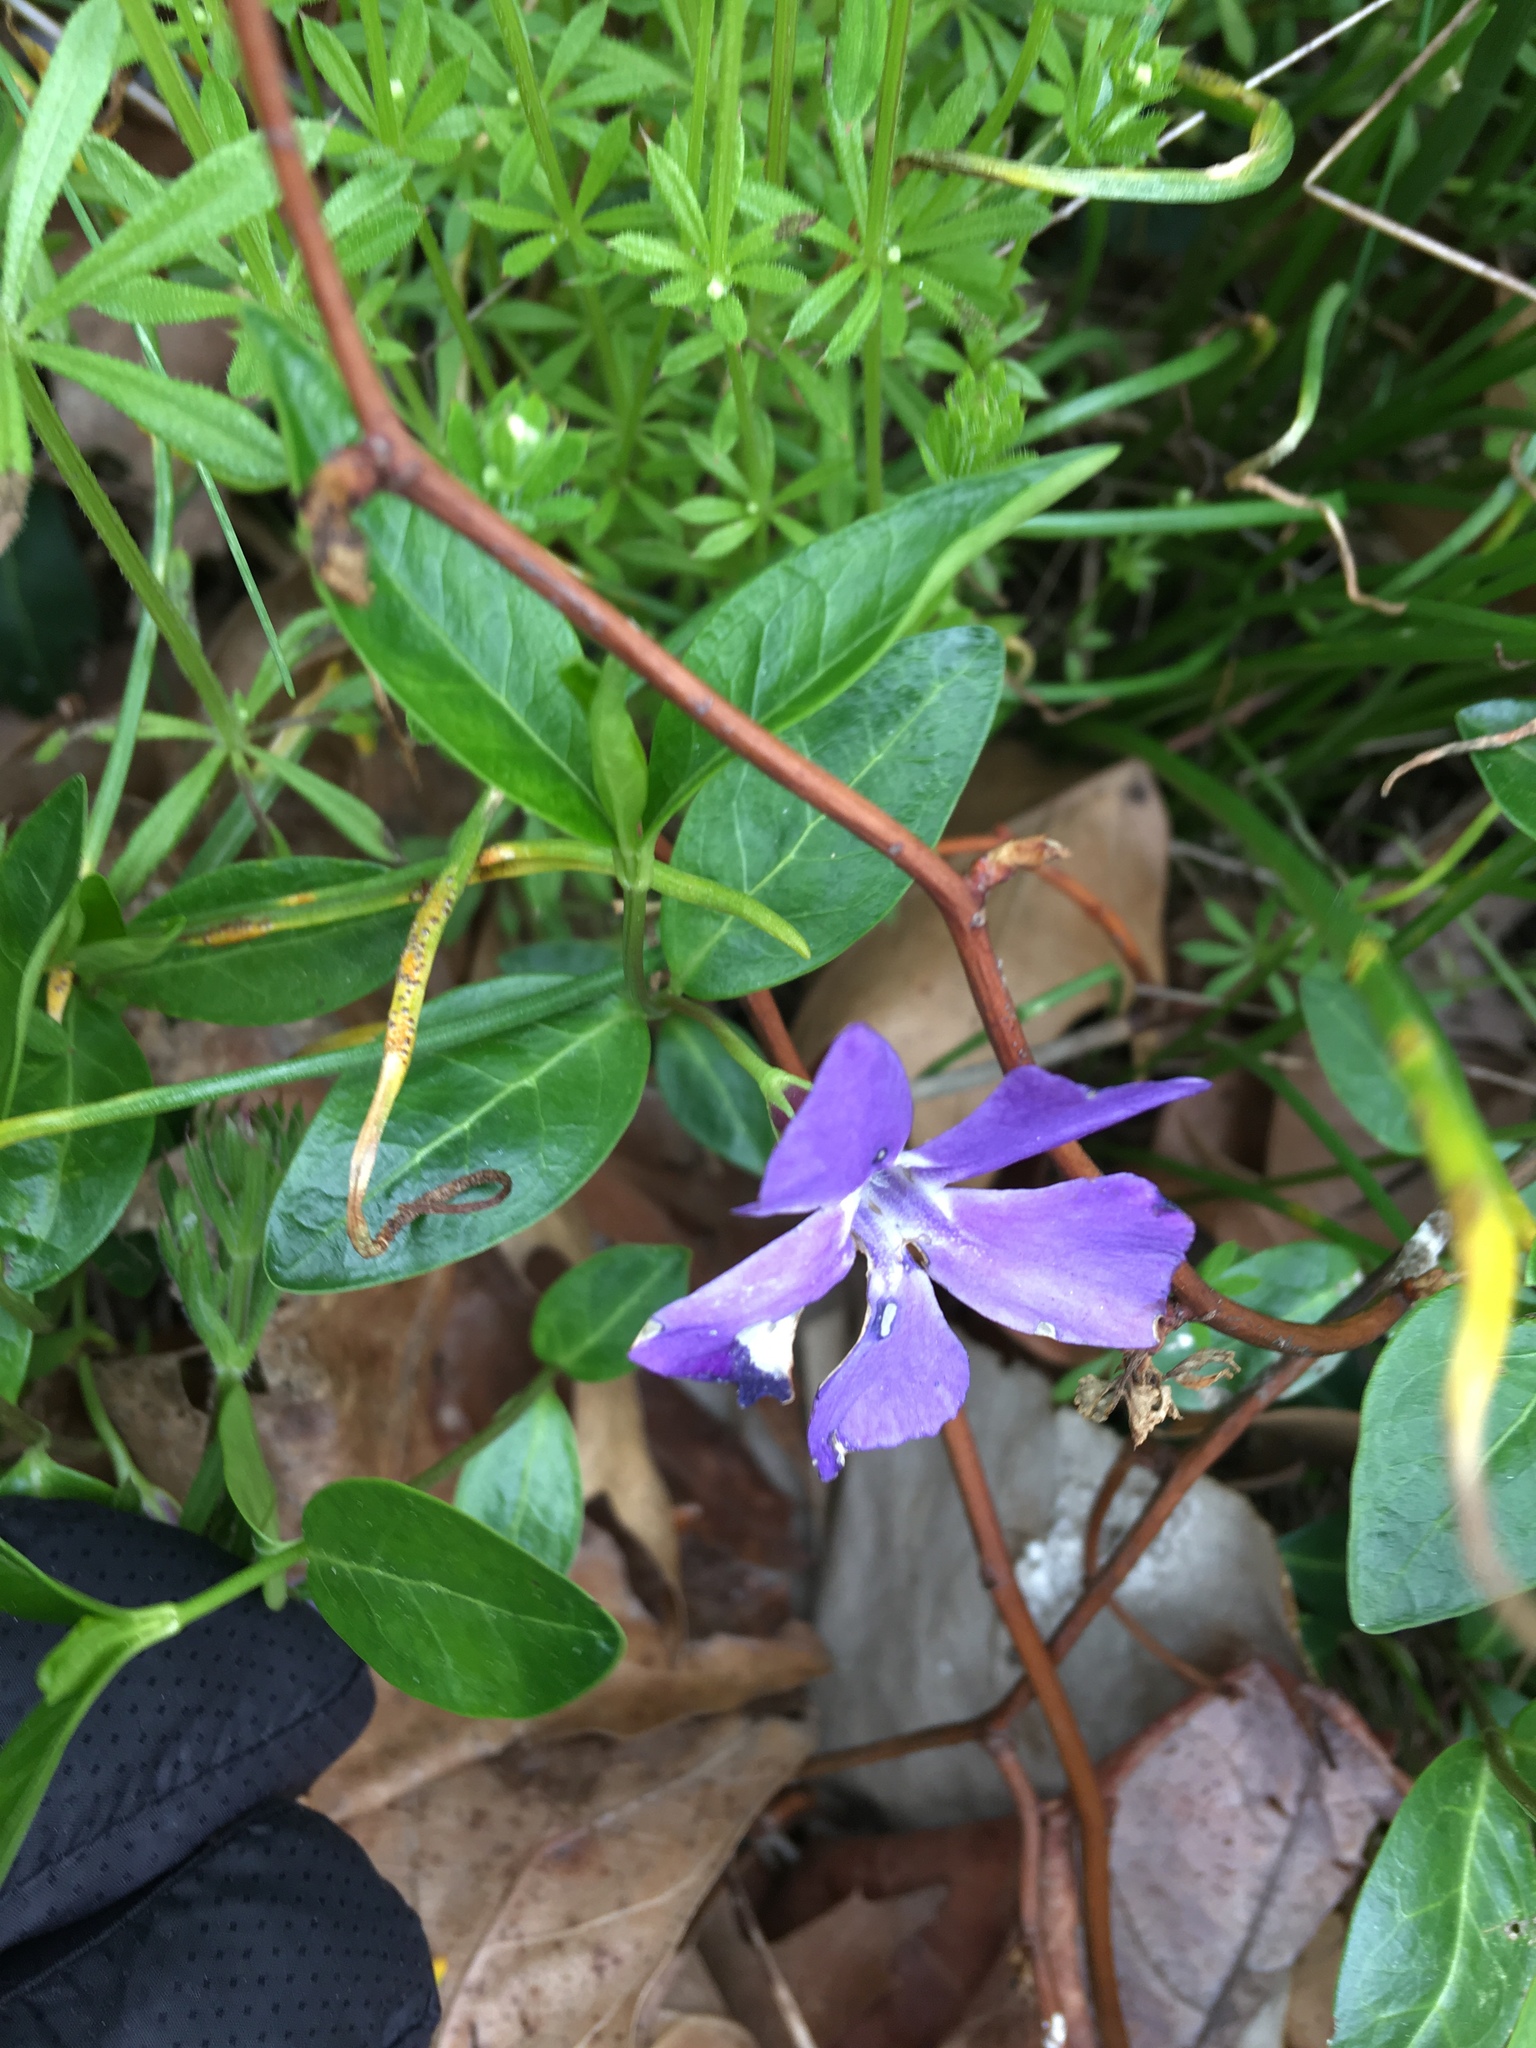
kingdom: Plantae
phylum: Tracheophyta
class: Magnoliopsida
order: Gentianales
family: Apocynaceae
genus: Vinca
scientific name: Vinca minor
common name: Lesser periwinkle
